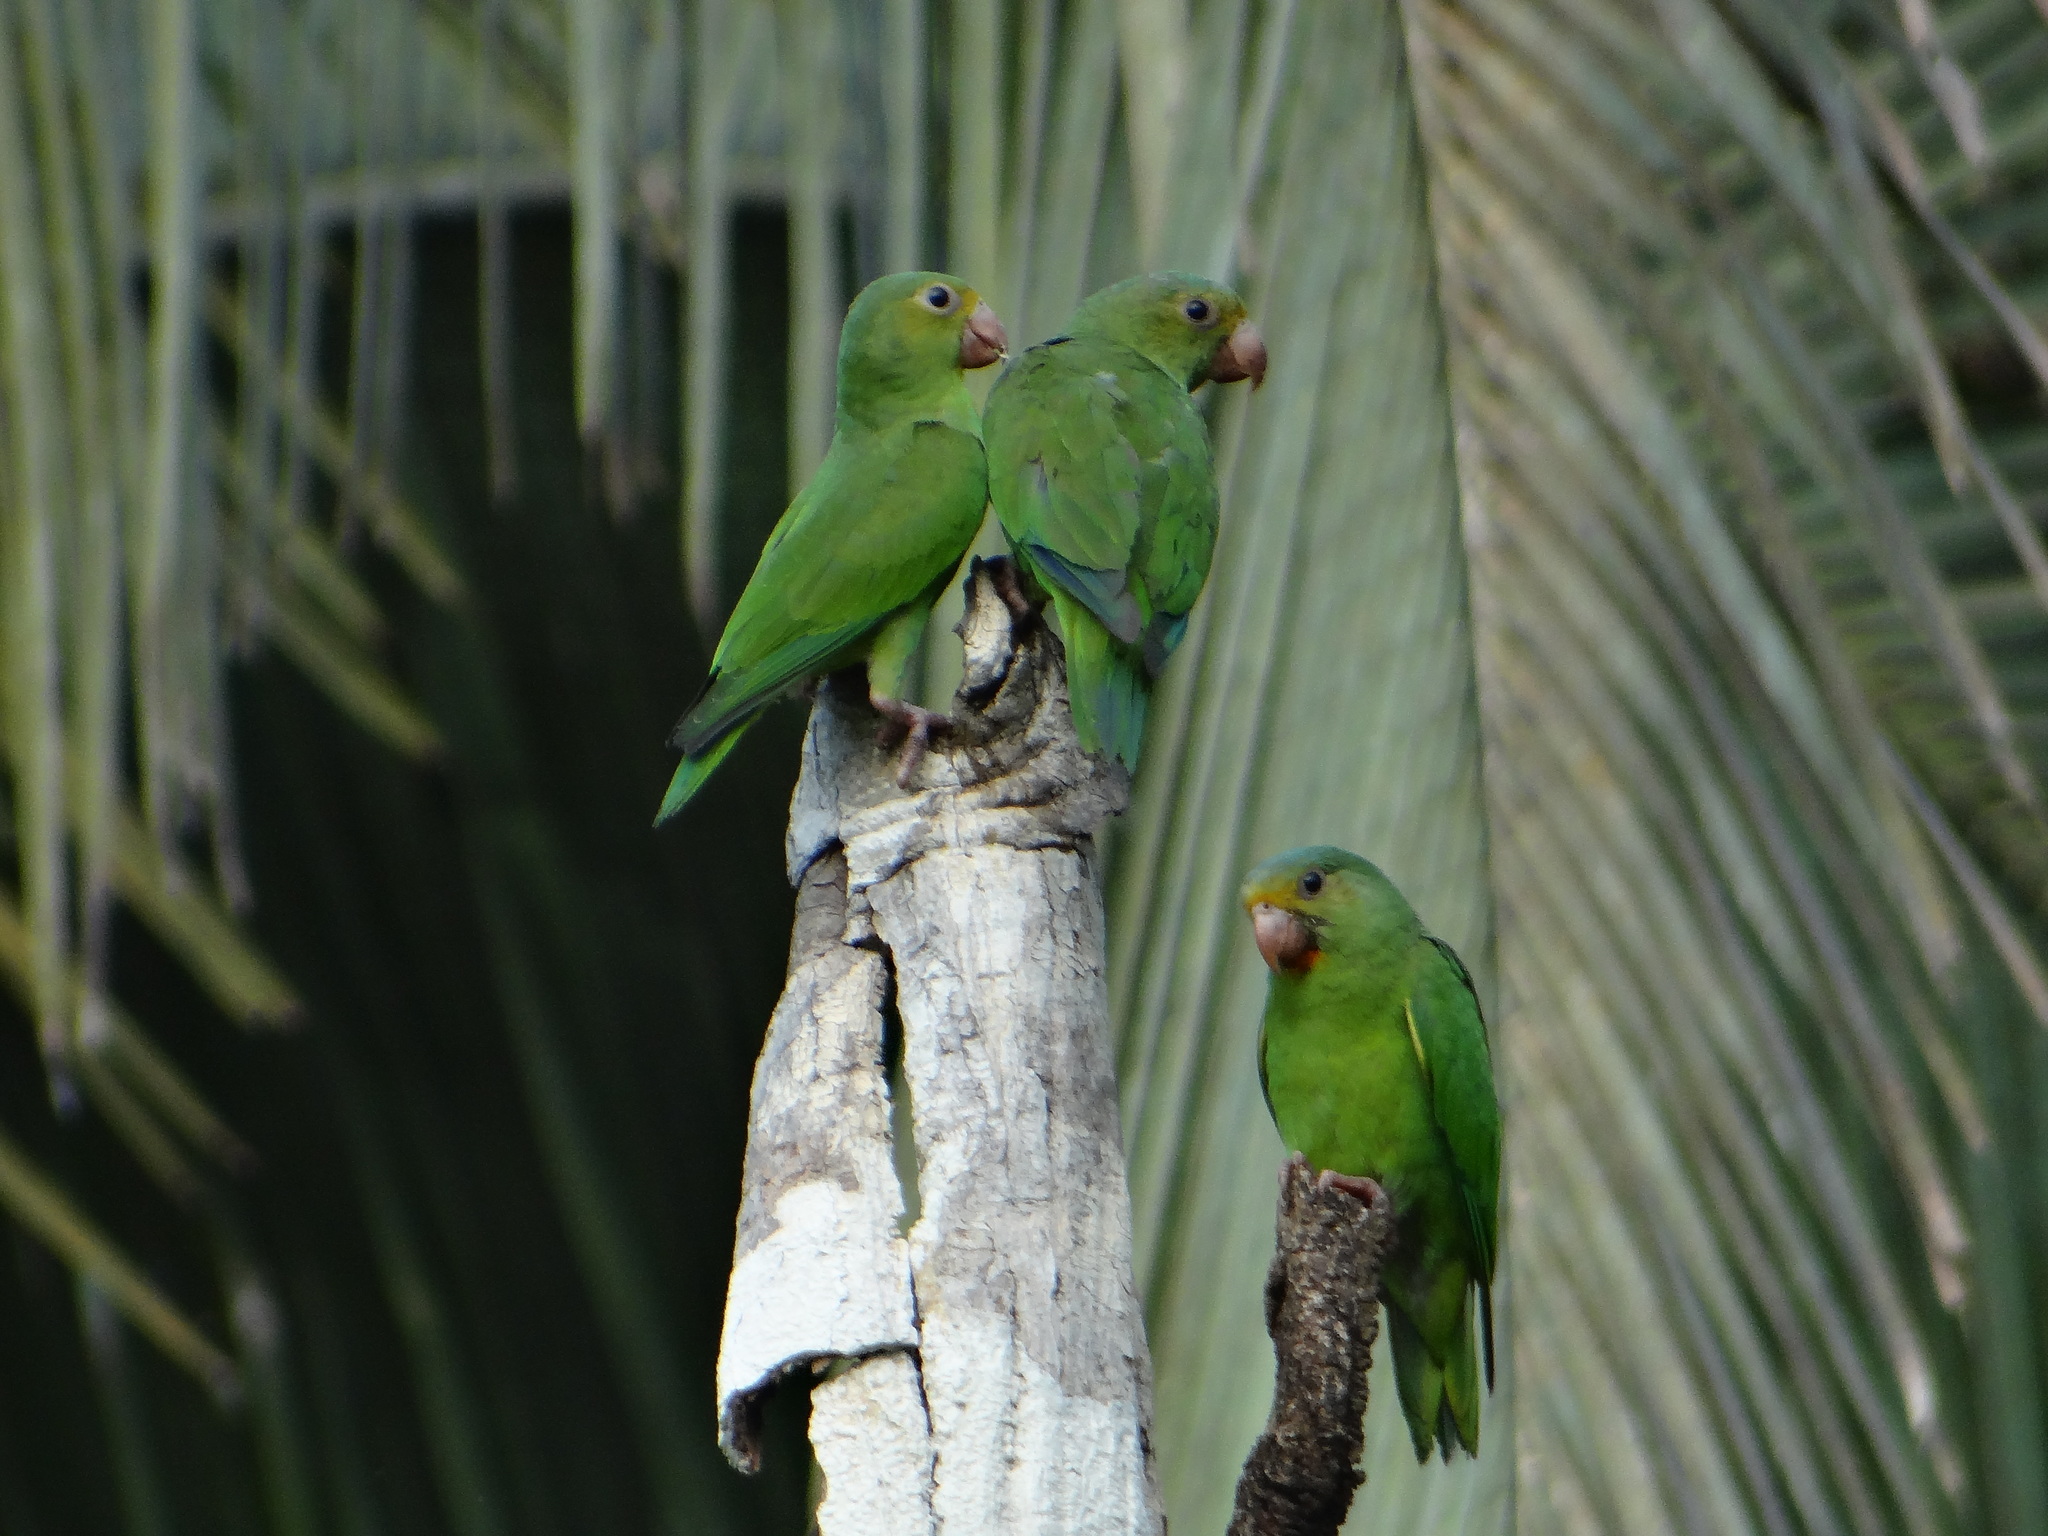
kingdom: Animalia
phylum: Chordata
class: Aves
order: Psittaciformes
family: Psittacidae
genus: Brotogeris
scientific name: Brotogeris cyanoptera
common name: Cobalt-winged parakeet
